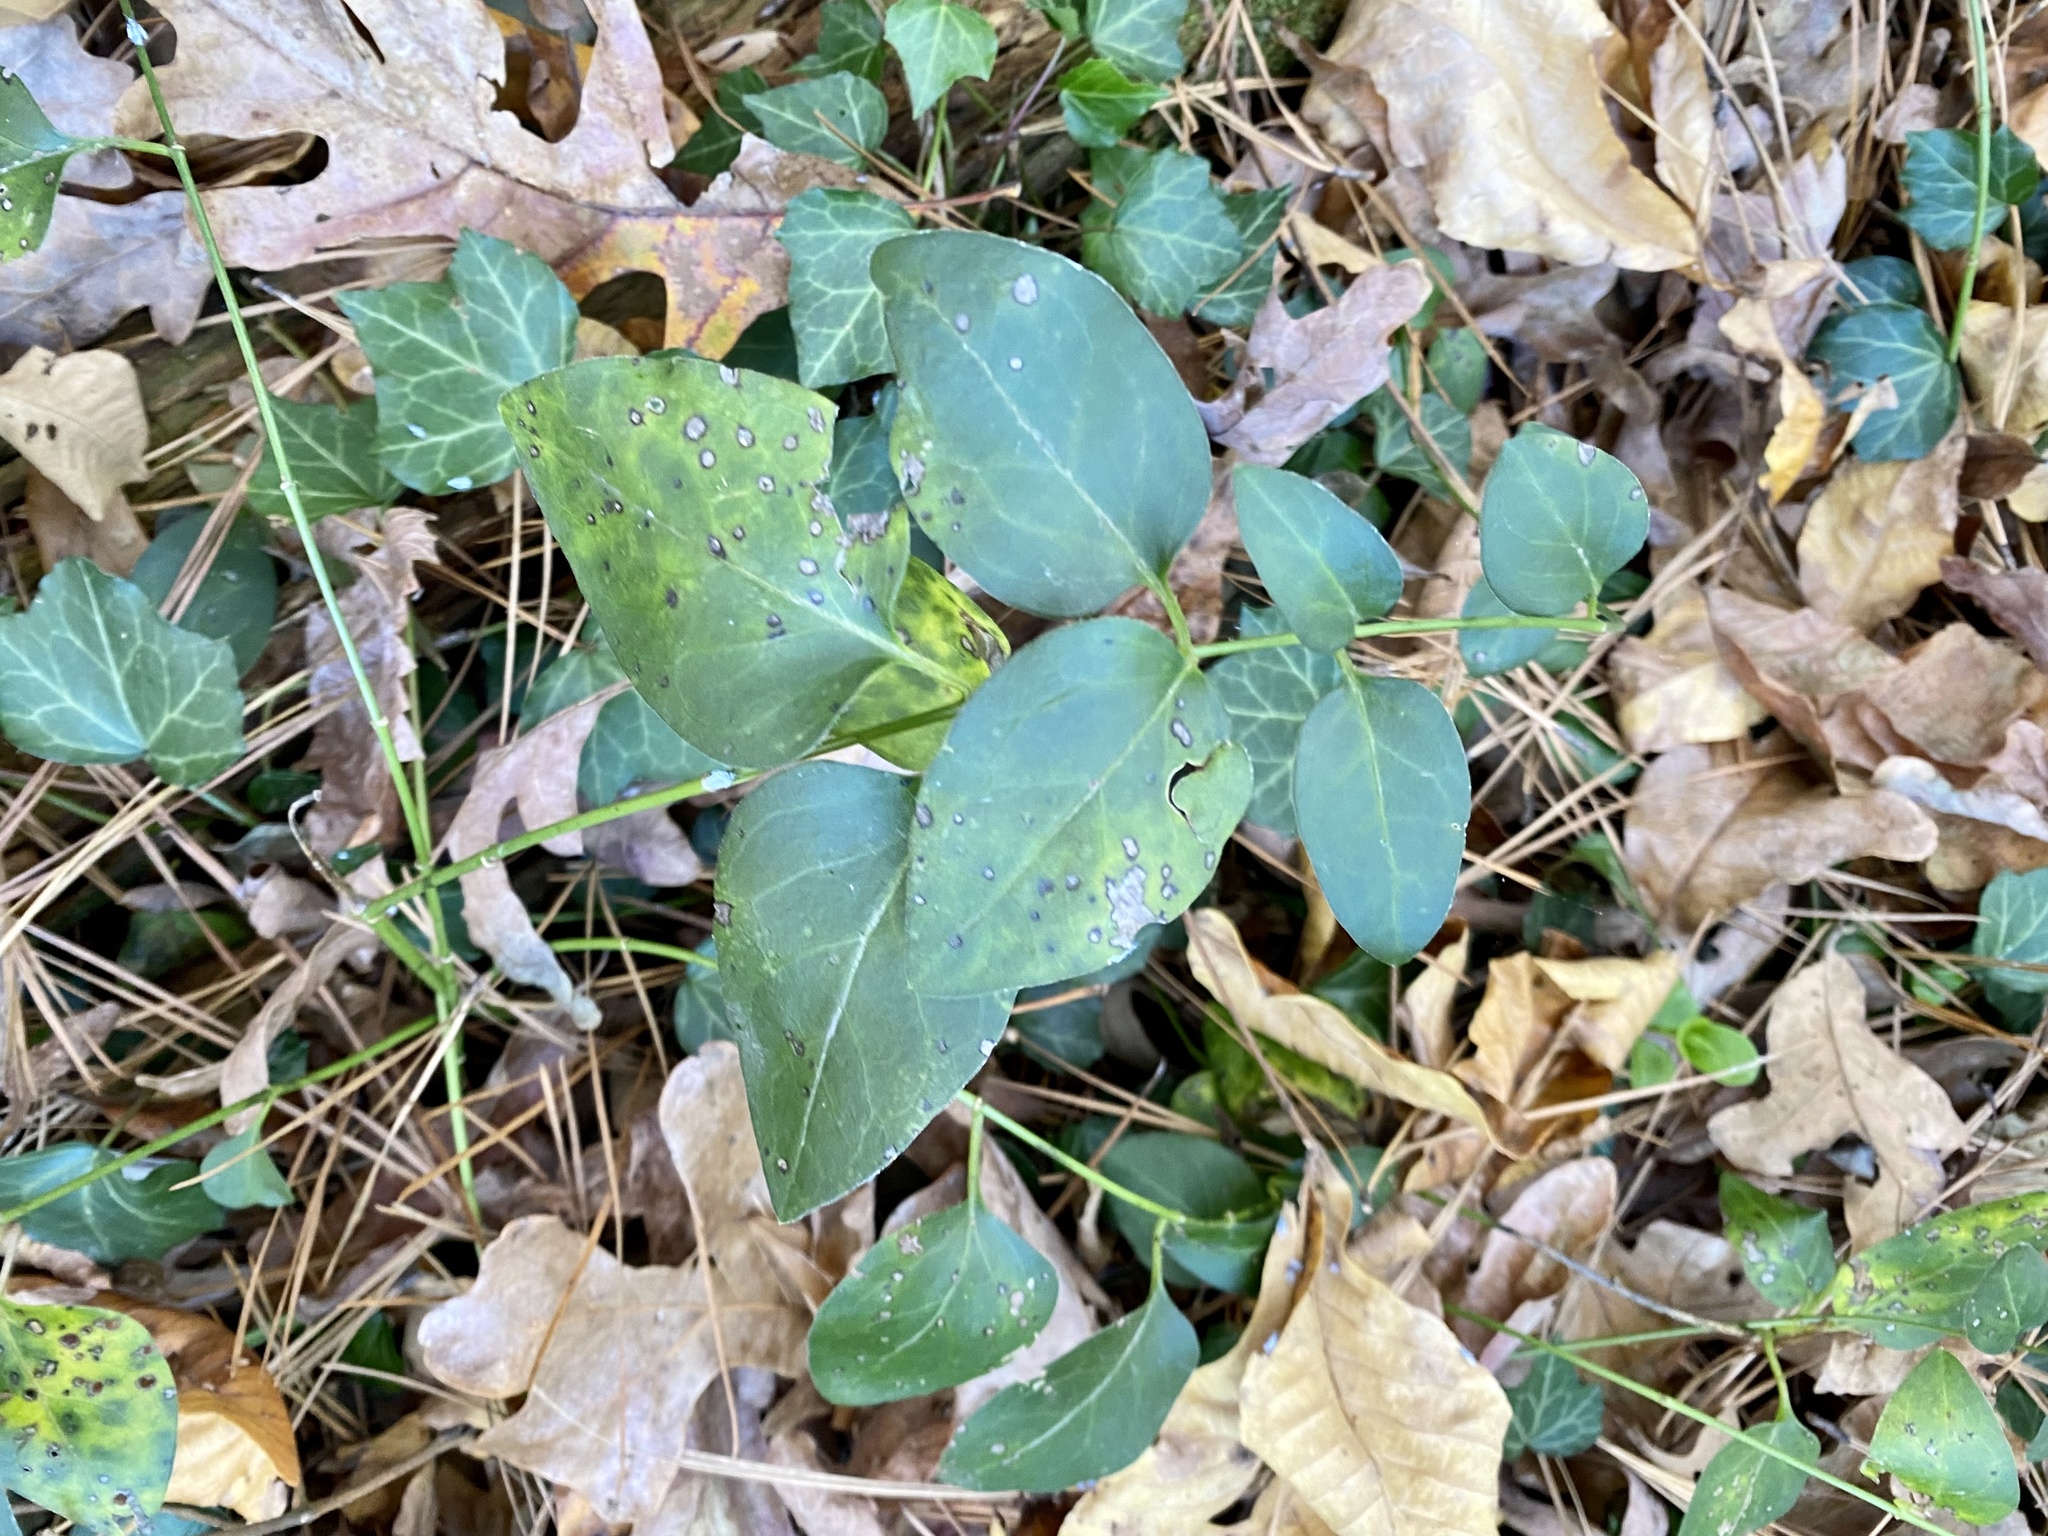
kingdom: Plantae
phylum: Tracheophyta
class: Magnoliopsida
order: Gentianales
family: Apocynaceae
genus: Vinca
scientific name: Vinca major
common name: Greater periwinkle
